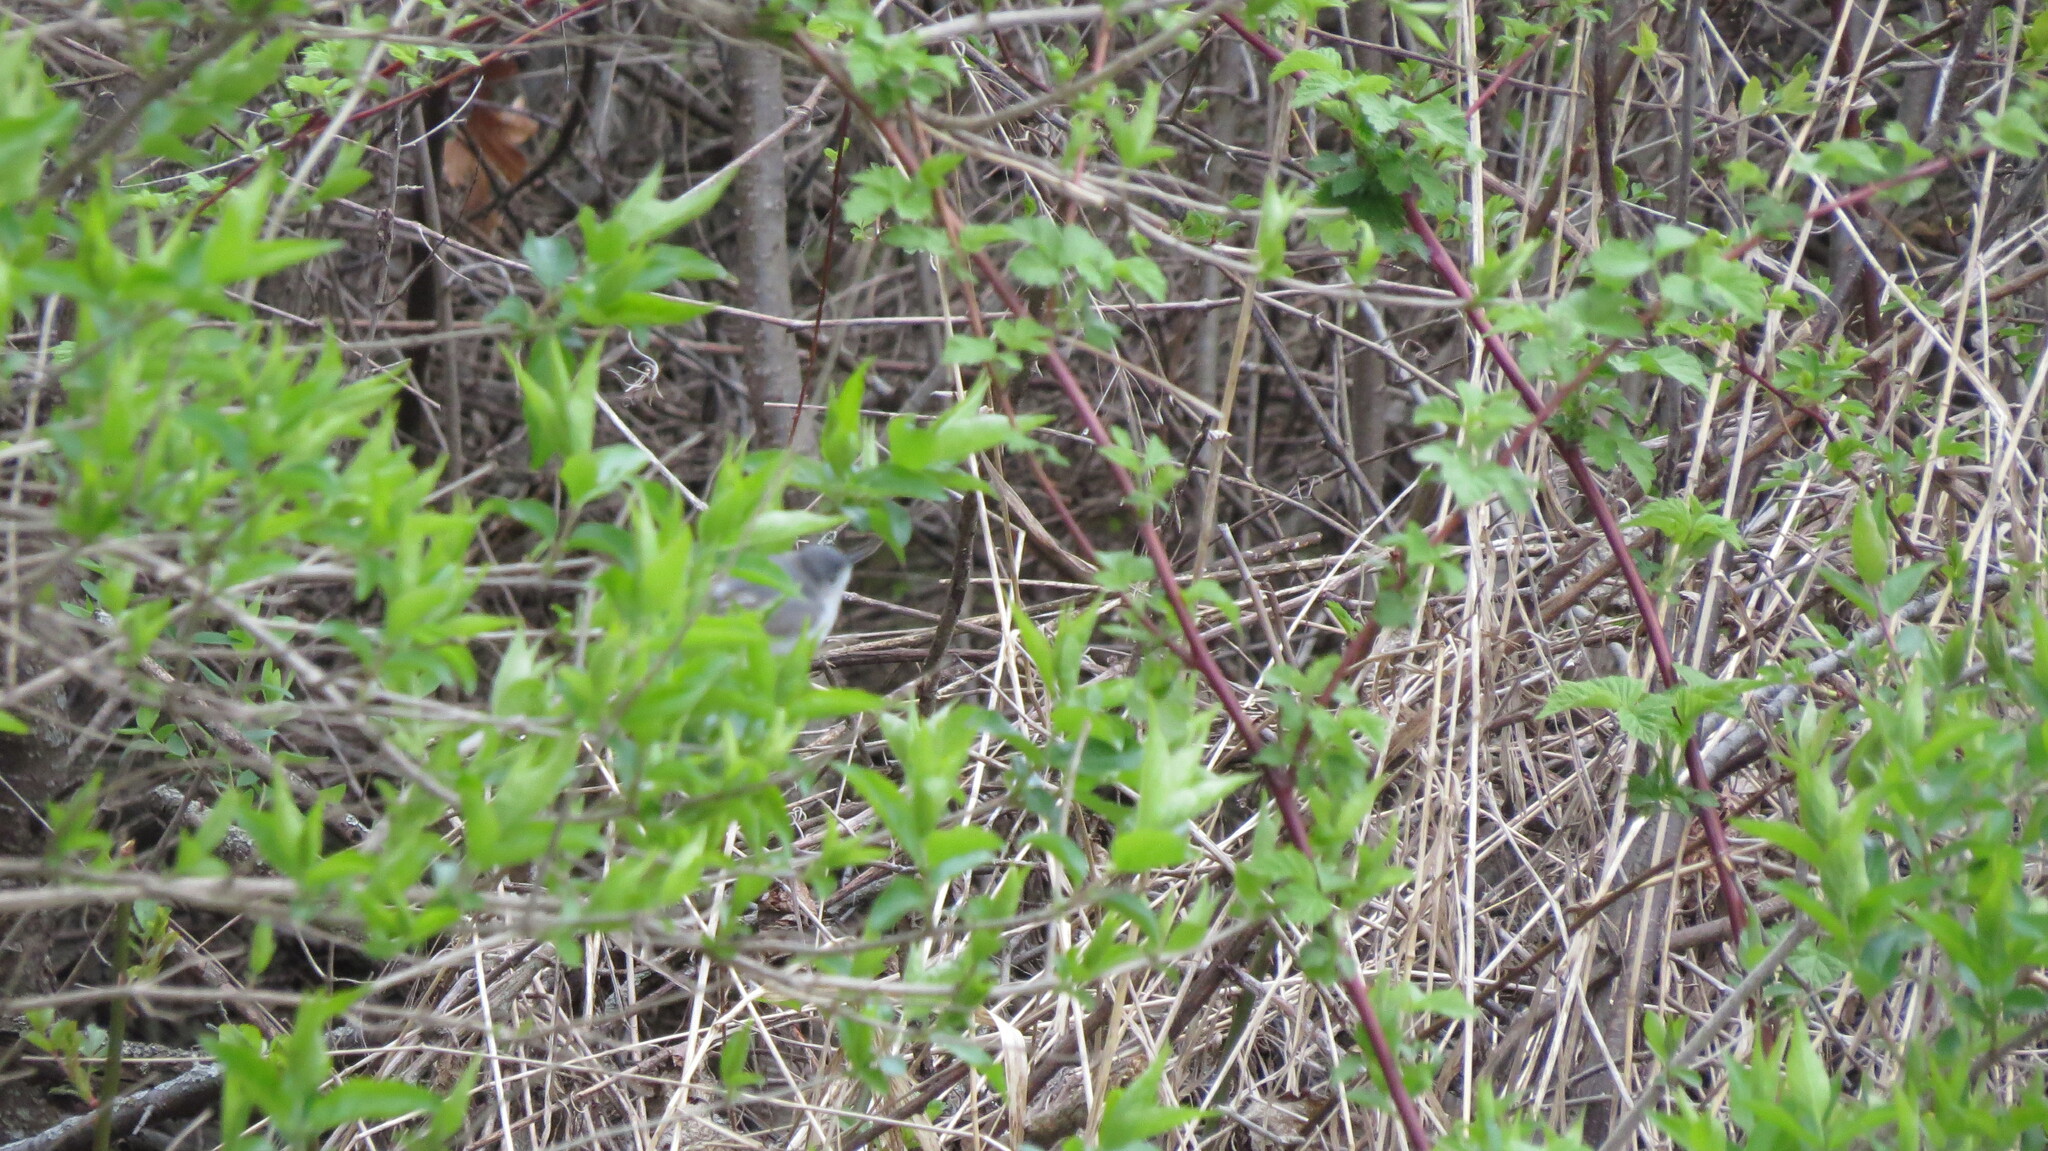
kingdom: Animalia
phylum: Chordata
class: Aves
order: Passeriformes
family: Polioptilidae
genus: Polioptila
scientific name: Polioptila caerulea
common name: Blue-gray gnatcatcher
